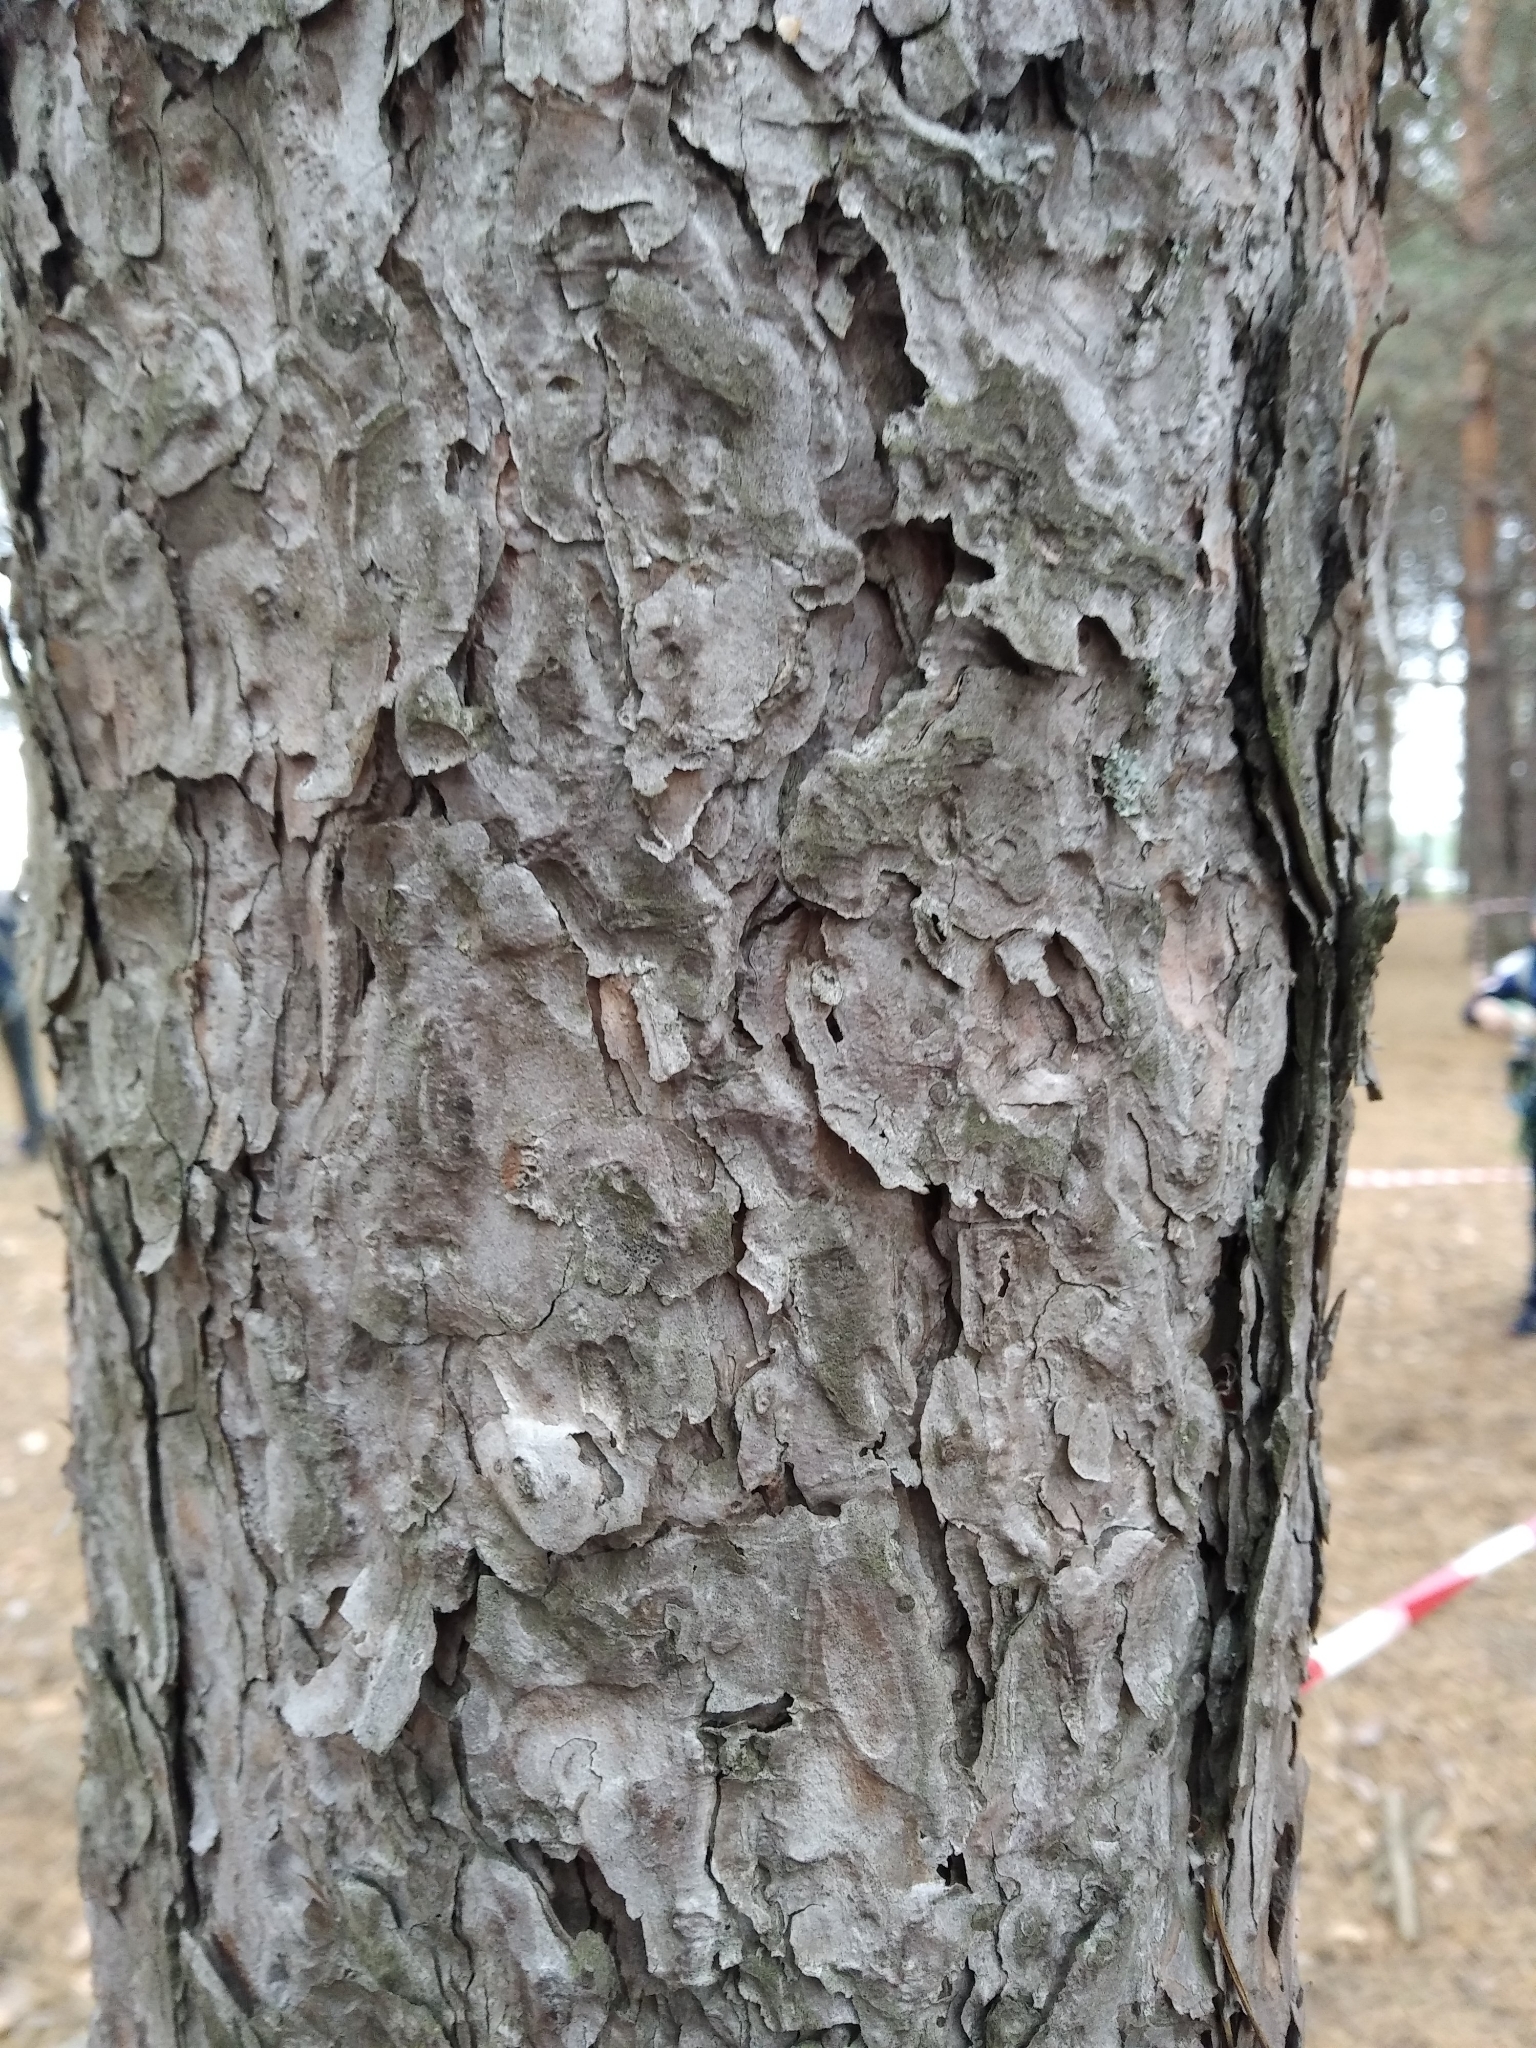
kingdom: Plantae
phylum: Tracheophyta
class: Pinopsida
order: Pinales
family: Pinaceae
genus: Pinus
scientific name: Pinus sylvestris
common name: Scots pine
